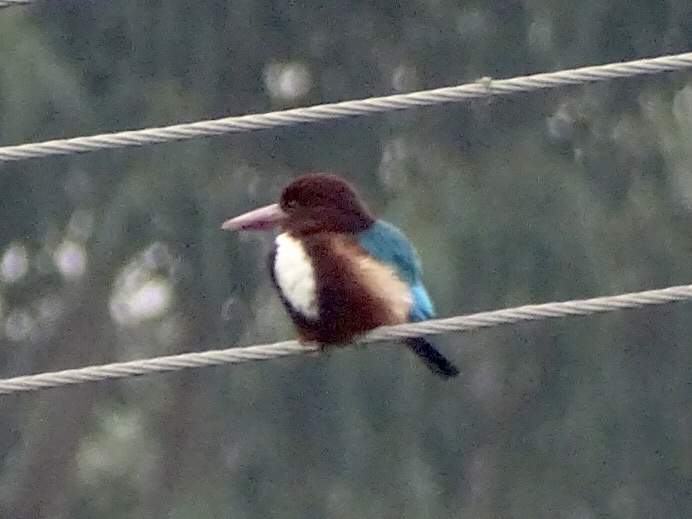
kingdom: Animalia
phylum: Chordata
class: Aves
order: Coraciiformes
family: Alcedinidae
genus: Halcyon
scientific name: Halcyon smyrnensis
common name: White-throated kingfisher
